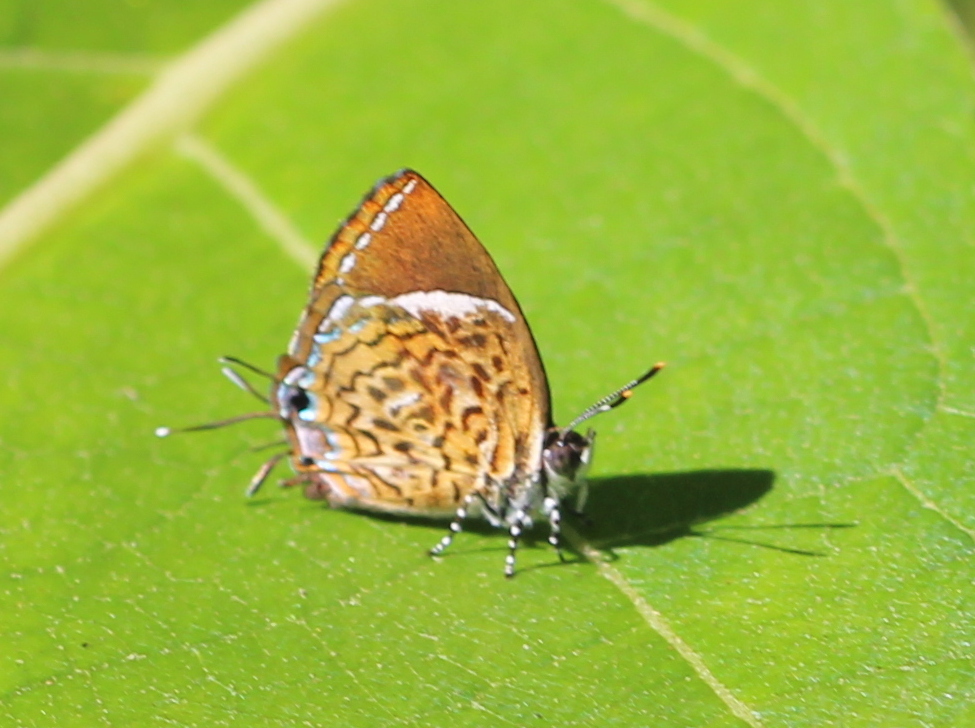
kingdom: Animalia
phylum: Arthropoda
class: Insecta
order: Lepidoptera
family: Lycaenidae
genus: Rathinda
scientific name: Rathinda amor
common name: Monkey puzzle
